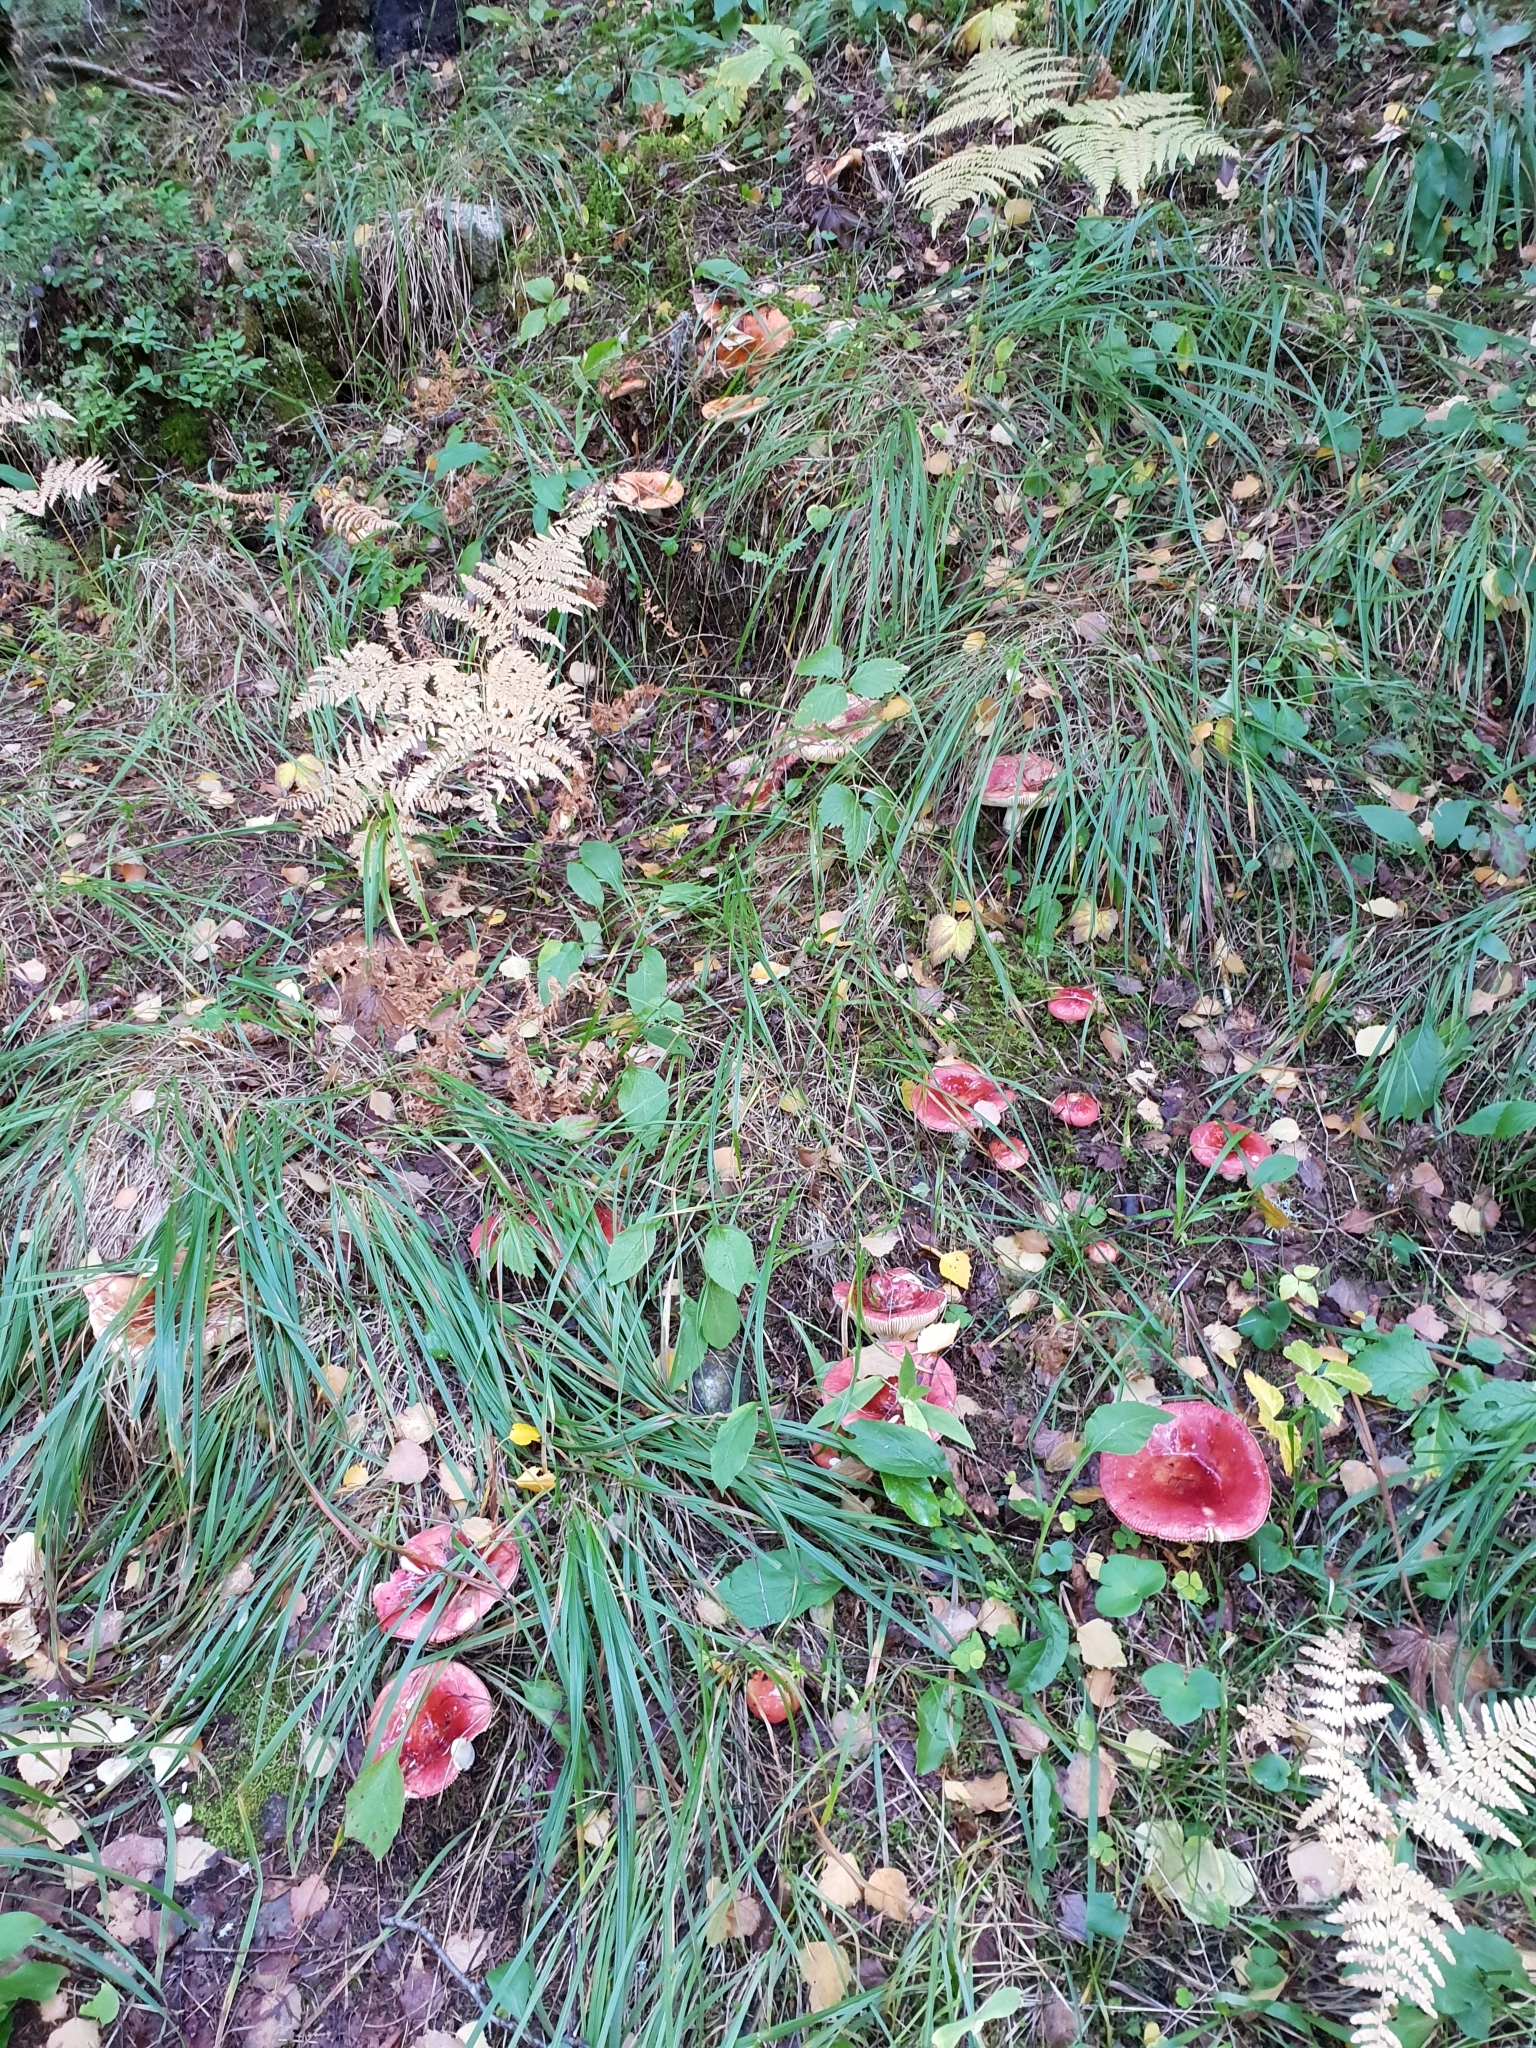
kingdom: Fungi
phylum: Basidiomycota
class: Agaricomycetes
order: Russulales
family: Russulaceae
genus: Russula
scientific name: Russula sanguinea
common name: Bloody brittlegill
